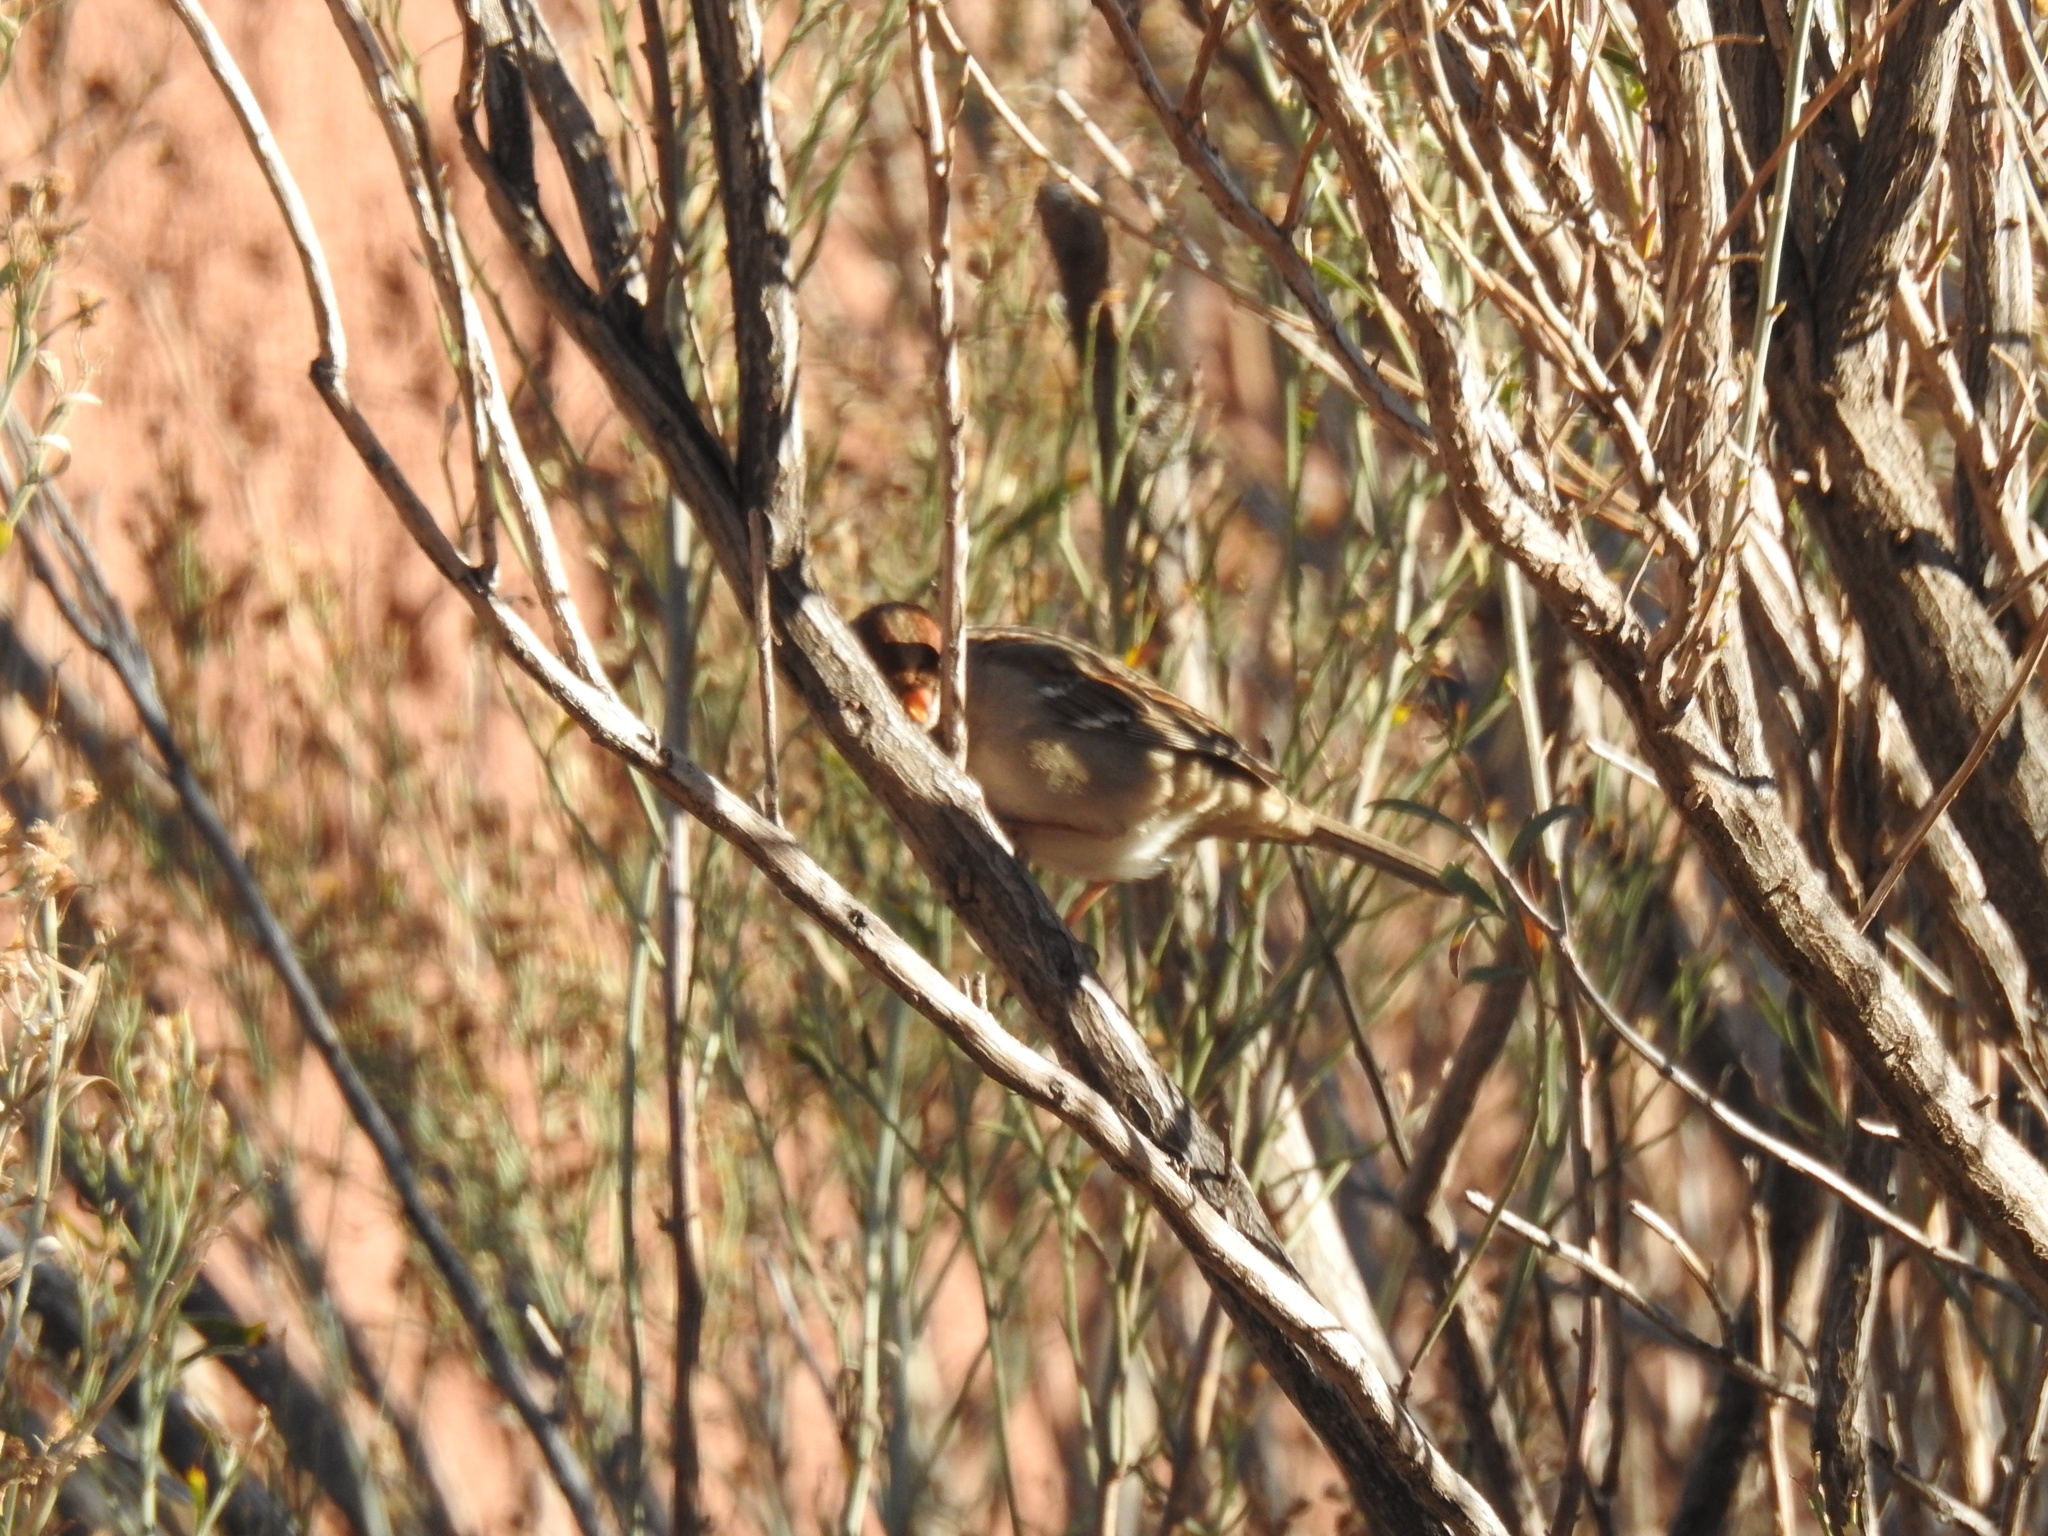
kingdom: Animalia
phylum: Chordata
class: Aves
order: Passeriformes
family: Passerellidae
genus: Zonotrichia
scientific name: Zonotrichia leucophrys
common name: White-crowned sparrow
